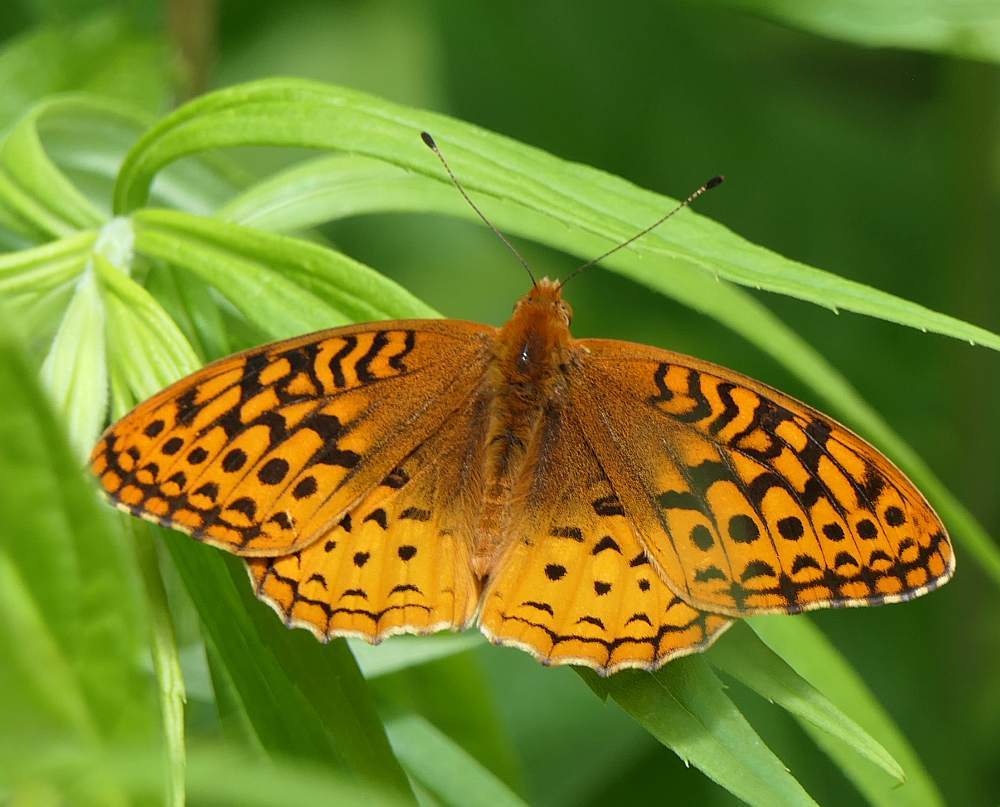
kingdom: Animalia
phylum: Arthropoda
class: Insecta
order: Lepidoptera
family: Nymphalidae
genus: Speyeria
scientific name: Speyeria cybele
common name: Great spangled fritillary
